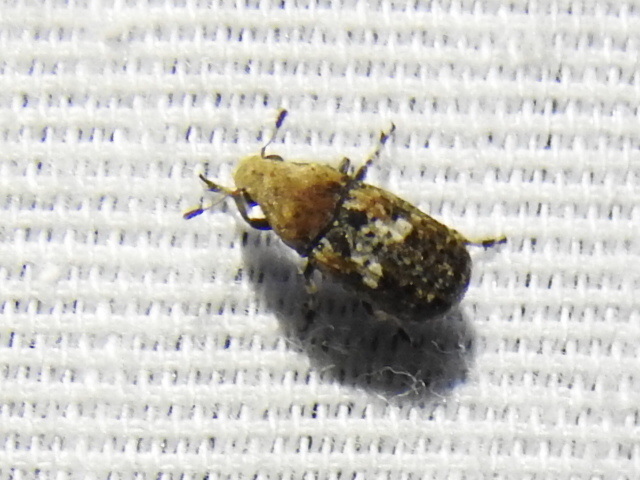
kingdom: Animalia
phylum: Arthropoda
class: Insecta
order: Coleoptera
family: Anthribidae
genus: Euparius
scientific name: Euparius paganus
